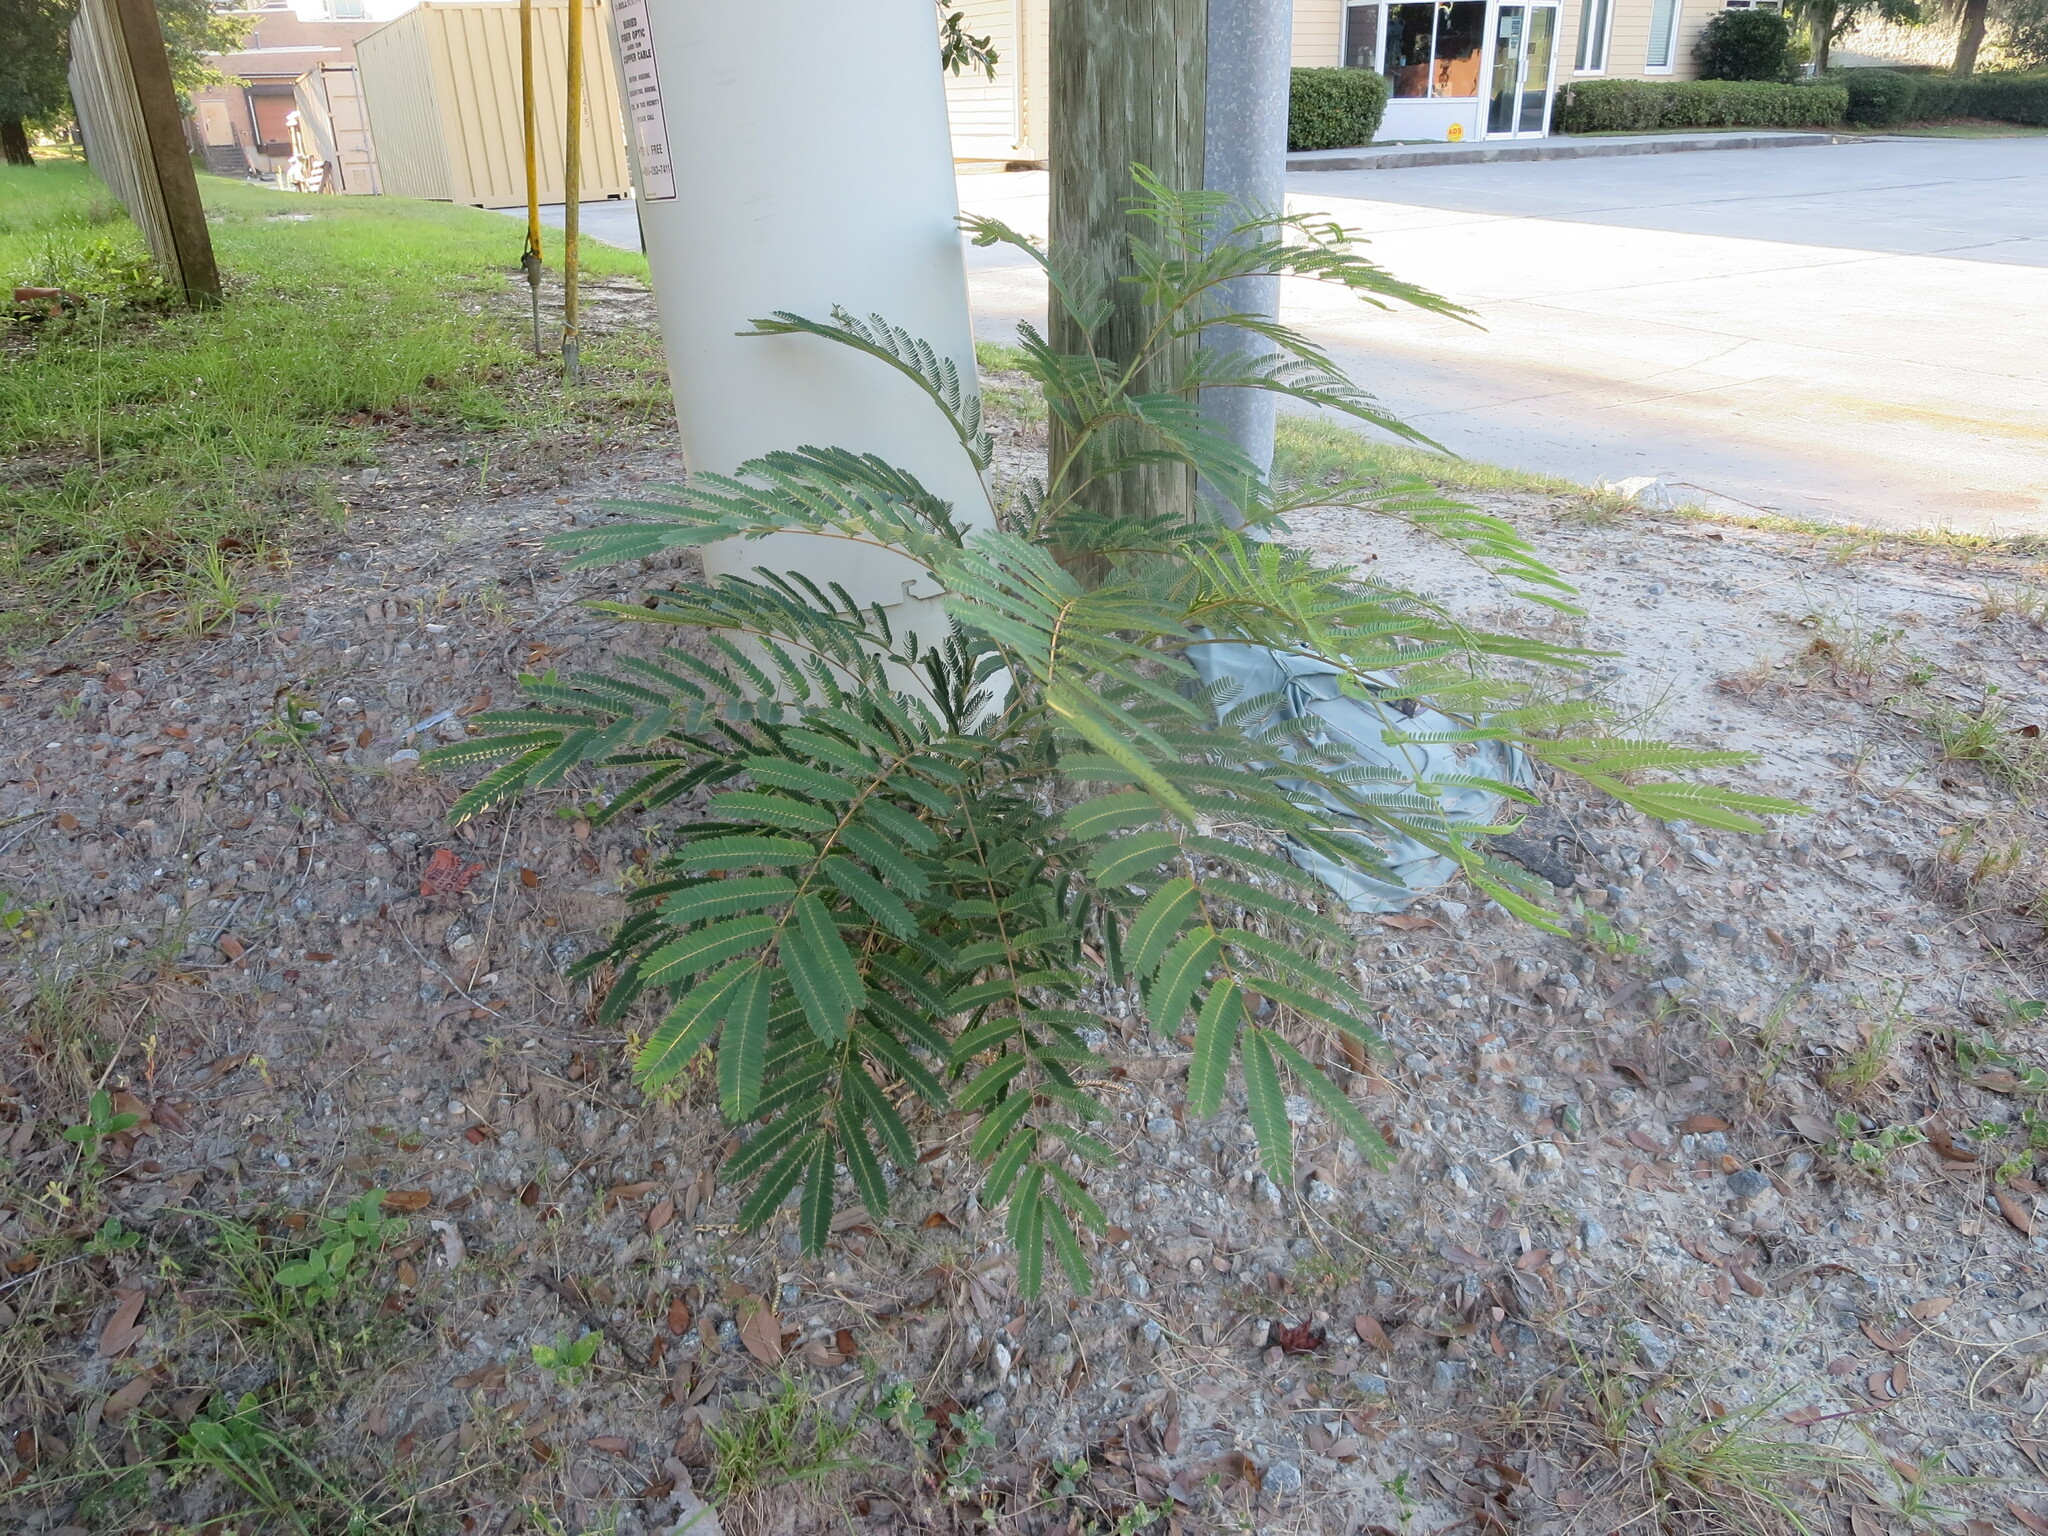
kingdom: Plantae
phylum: Tracheophyta
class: Magnoliopsida
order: Fabales
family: Fabaceae
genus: Albizia
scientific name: Albizia julibrissin
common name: Silktree
